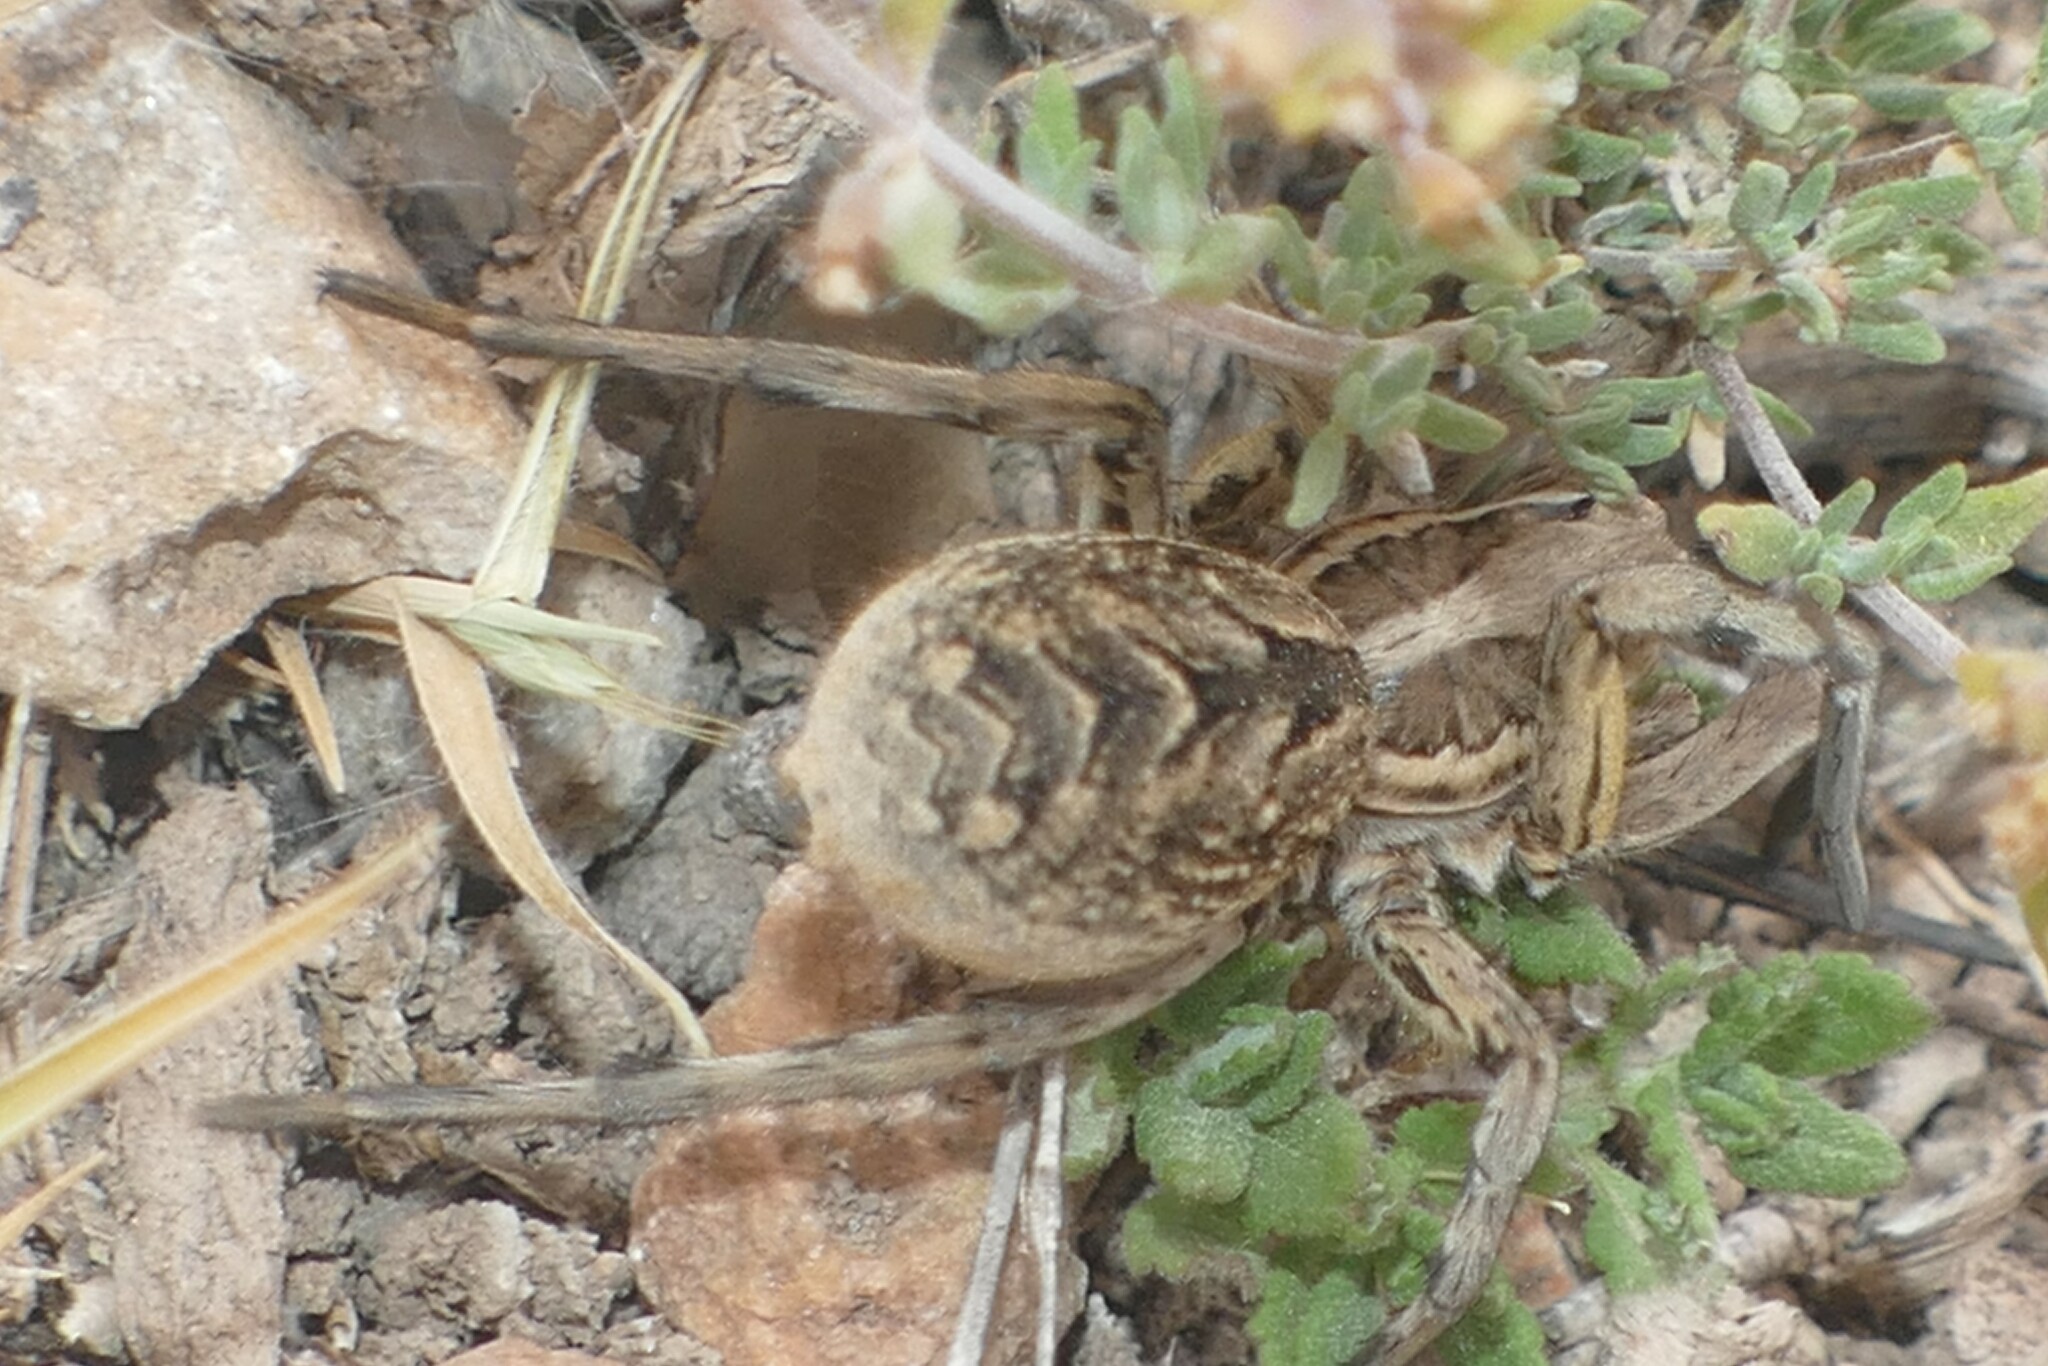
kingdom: Animalia
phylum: Arthropoda
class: Arachnida
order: Araneae
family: Lycosidae
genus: Lycosa
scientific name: Lycosa hispanica
